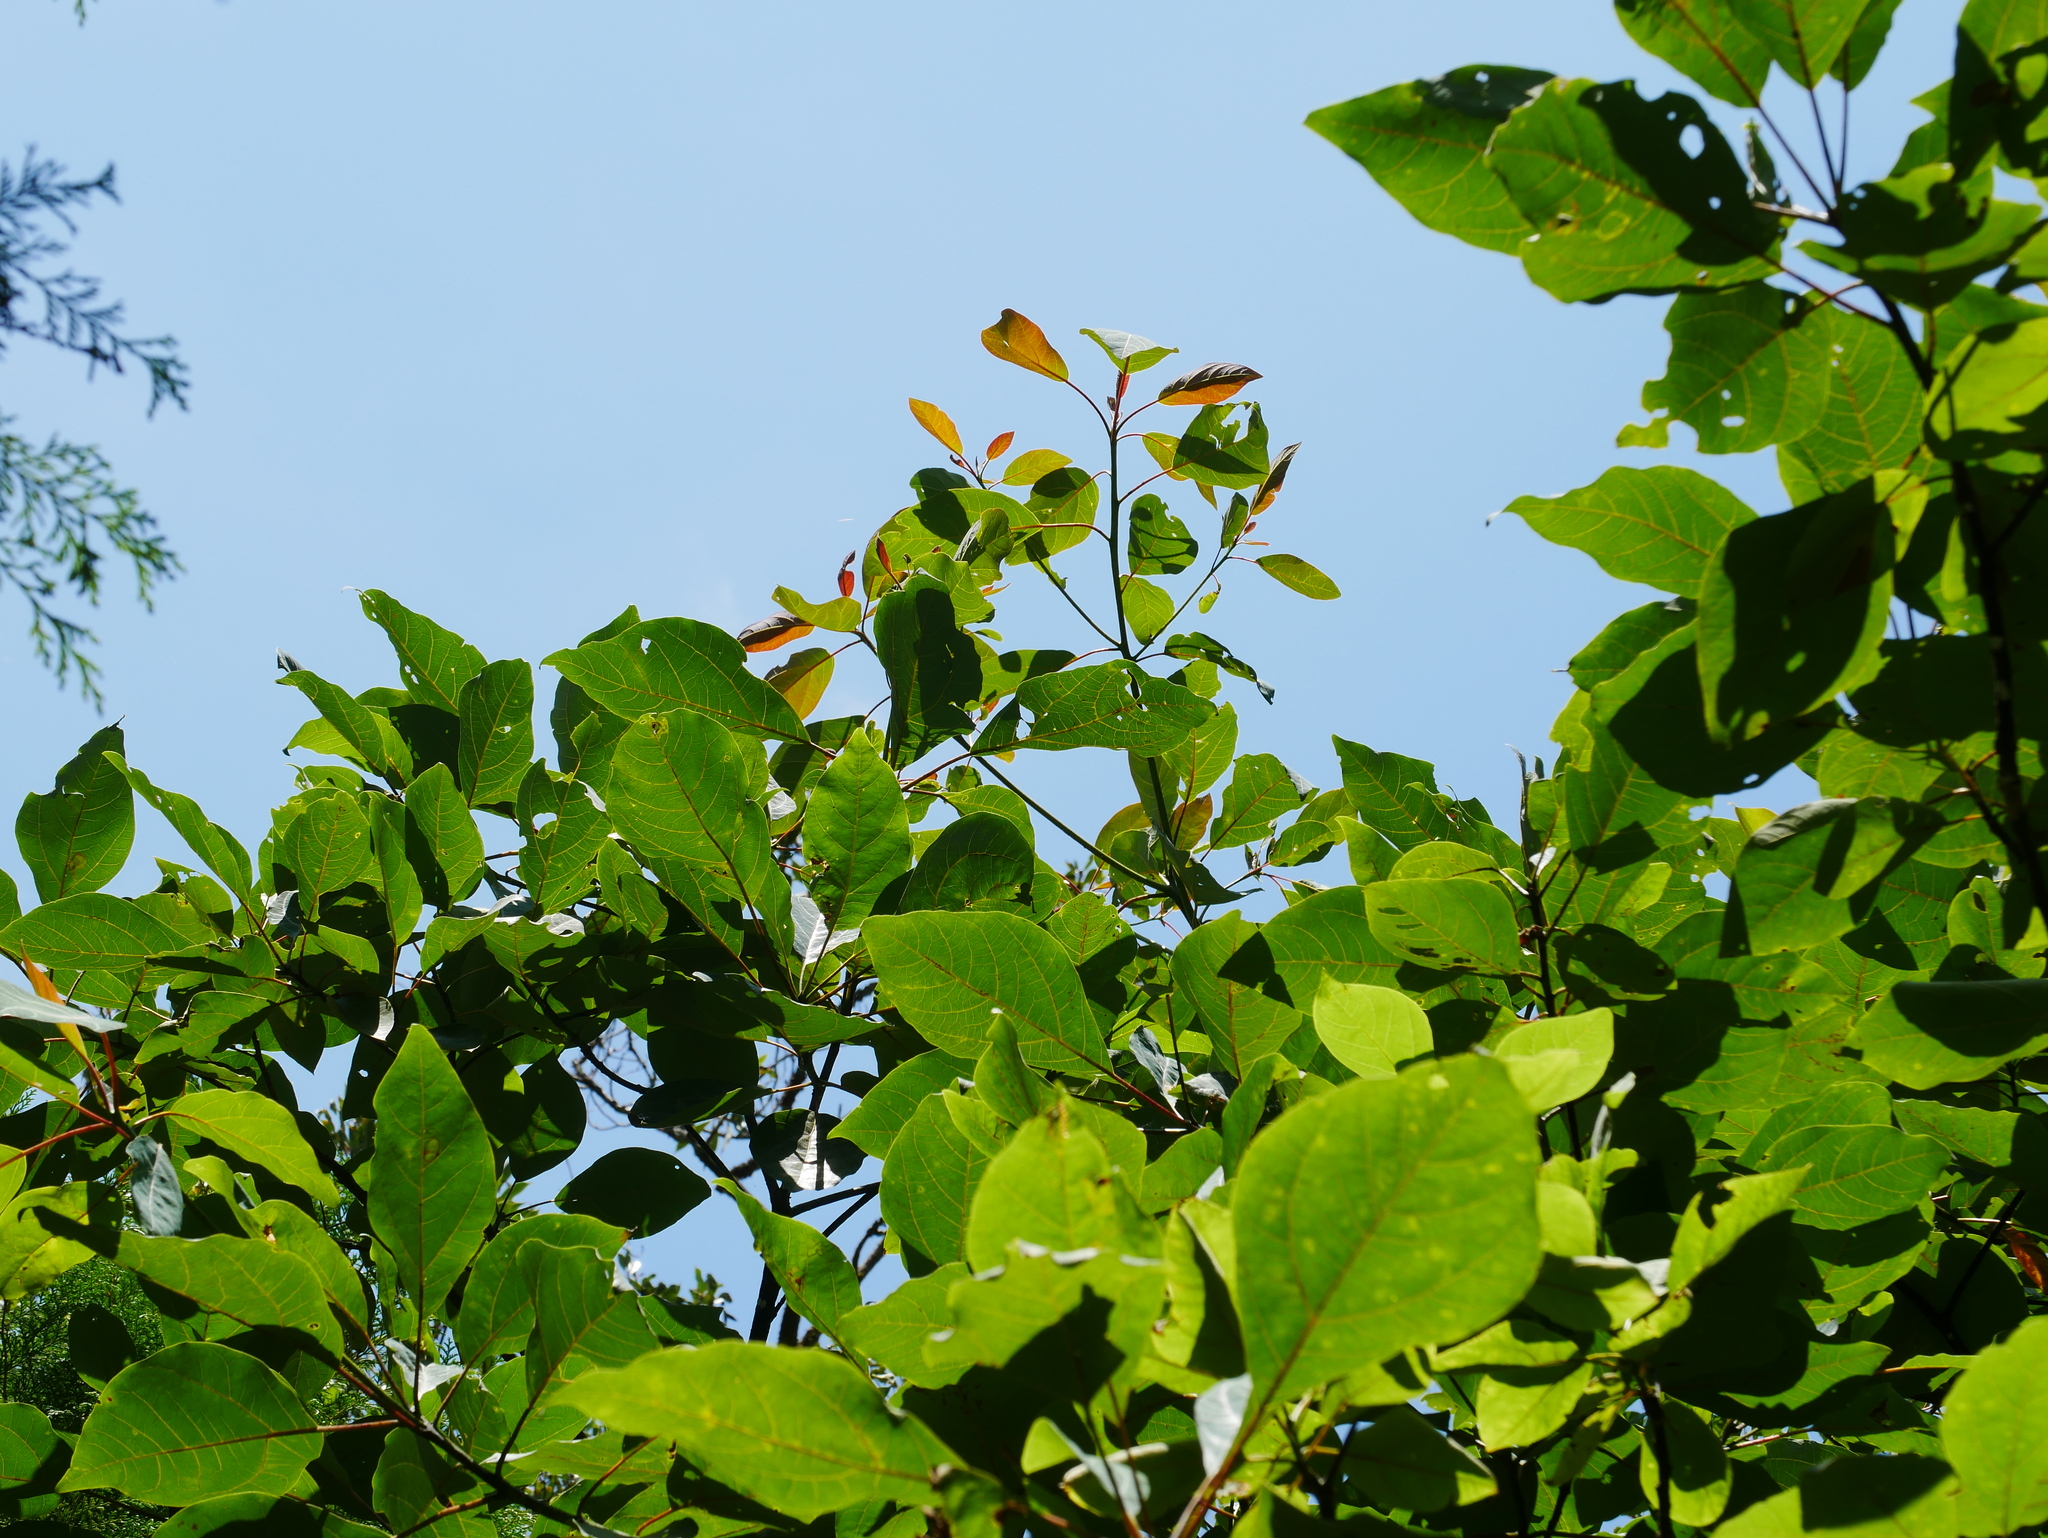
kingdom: Plantae
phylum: Tracheophyta
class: Magnoliopsida
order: Laurales
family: Lauraceae
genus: Sassafras
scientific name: Sassafras randaiense
